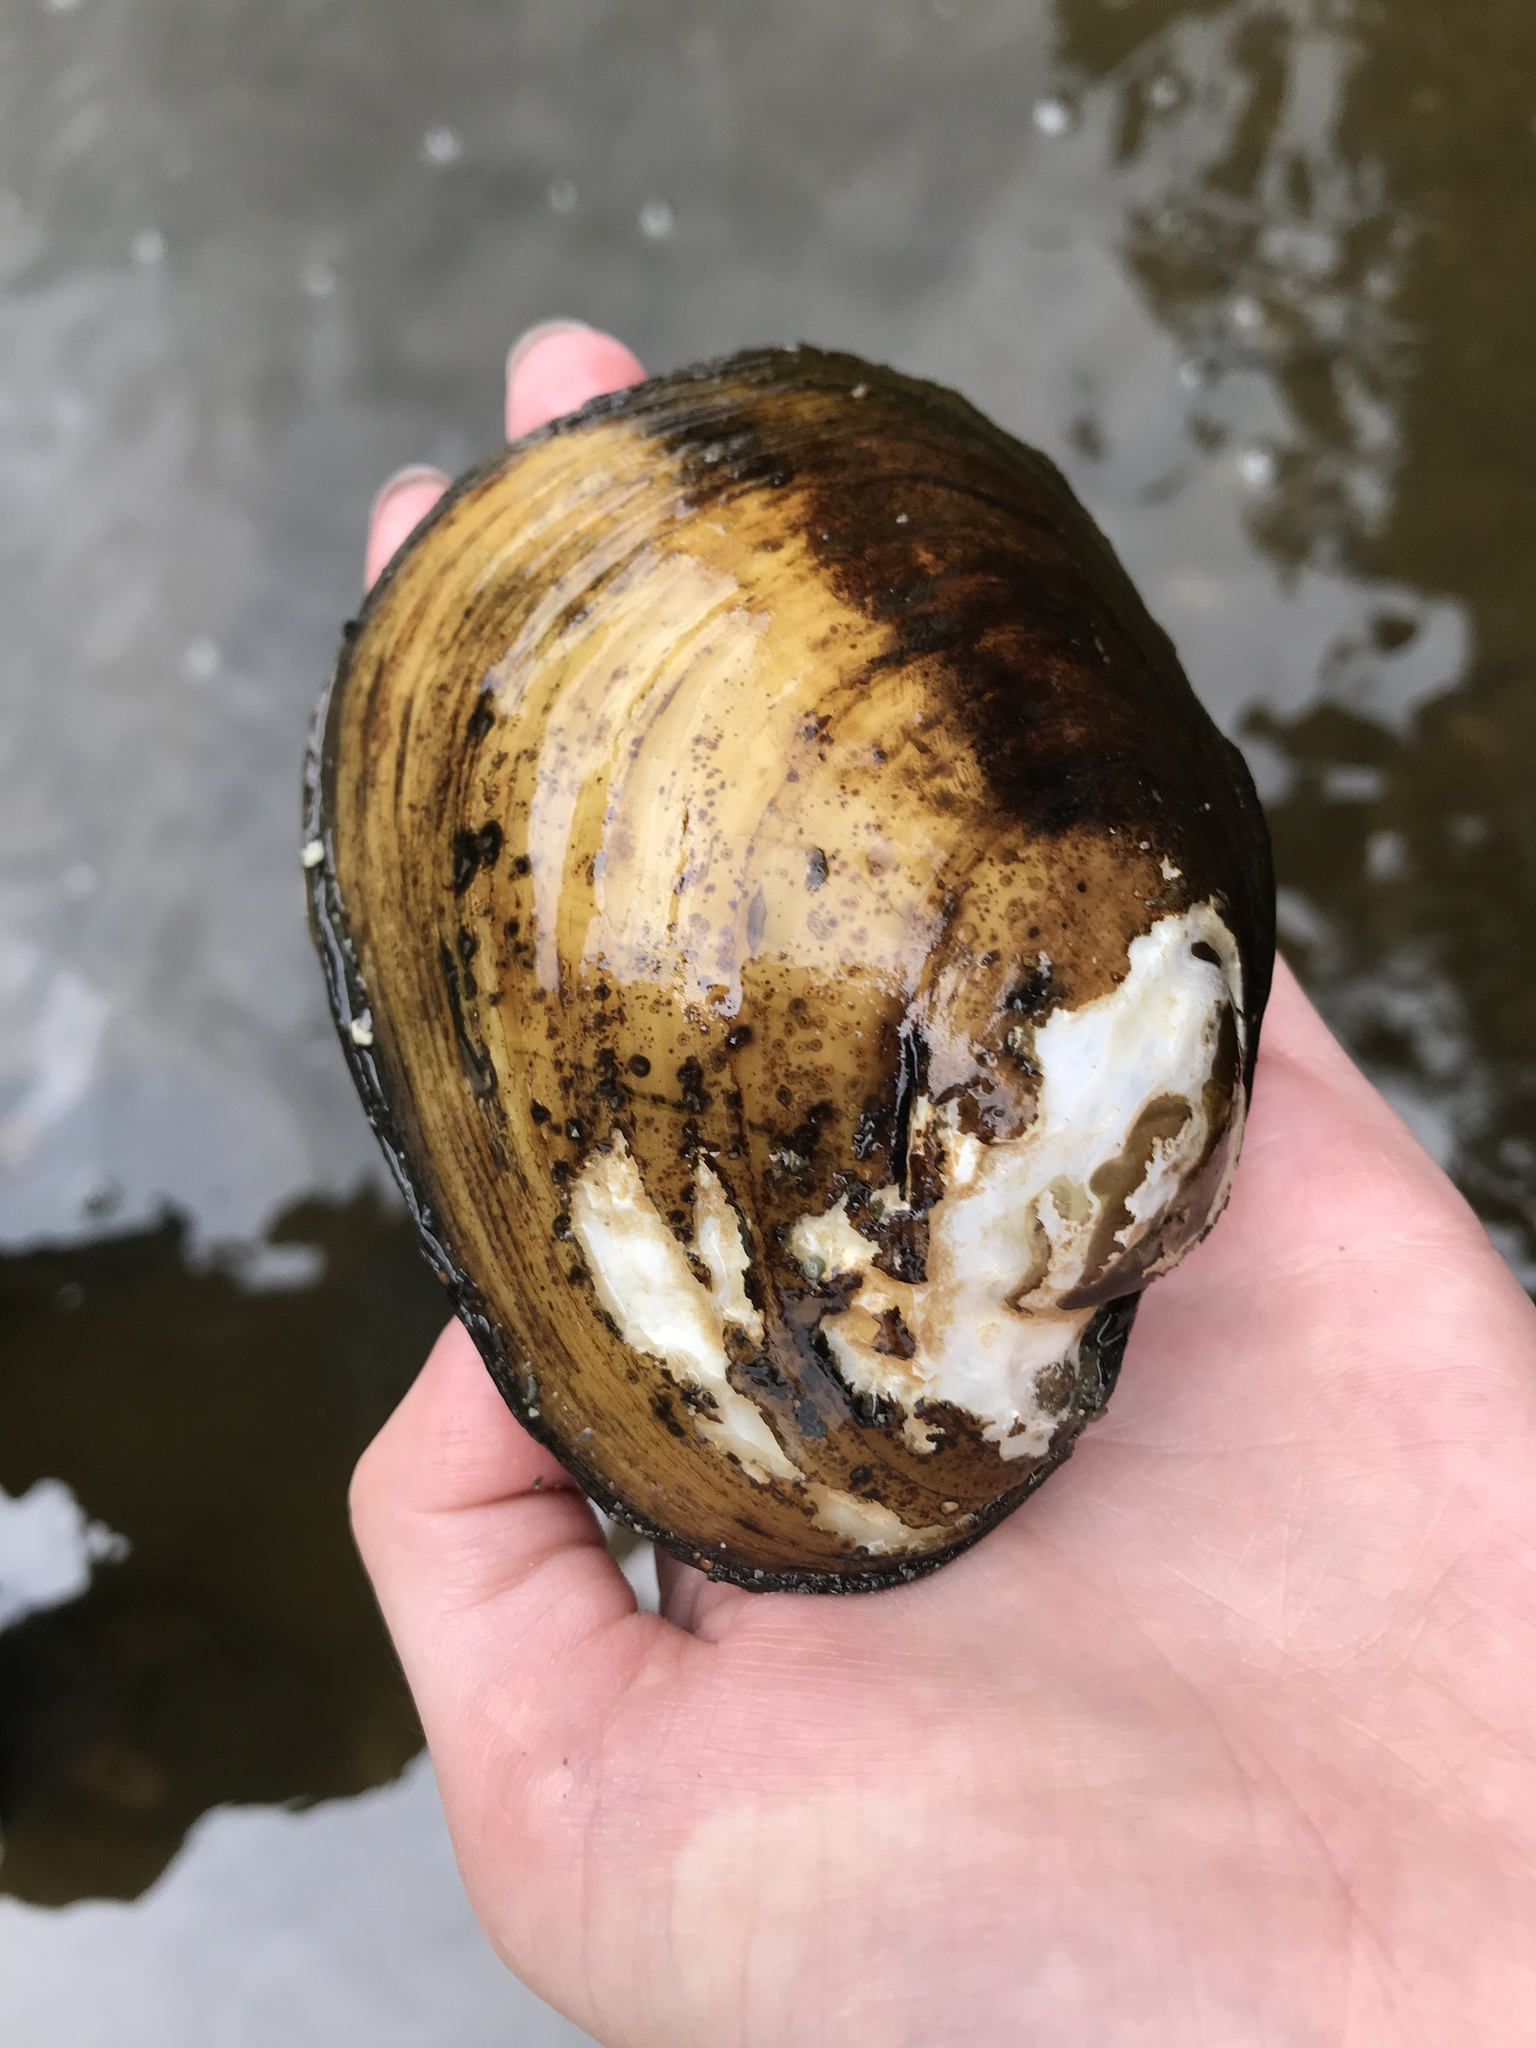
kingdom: Animalia
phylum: Mollusca
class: Bivalvia
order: Unionida
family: Unionidae
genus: Lampsilis
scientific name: Lampsilis cariosa
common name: Yellow lampmussel
